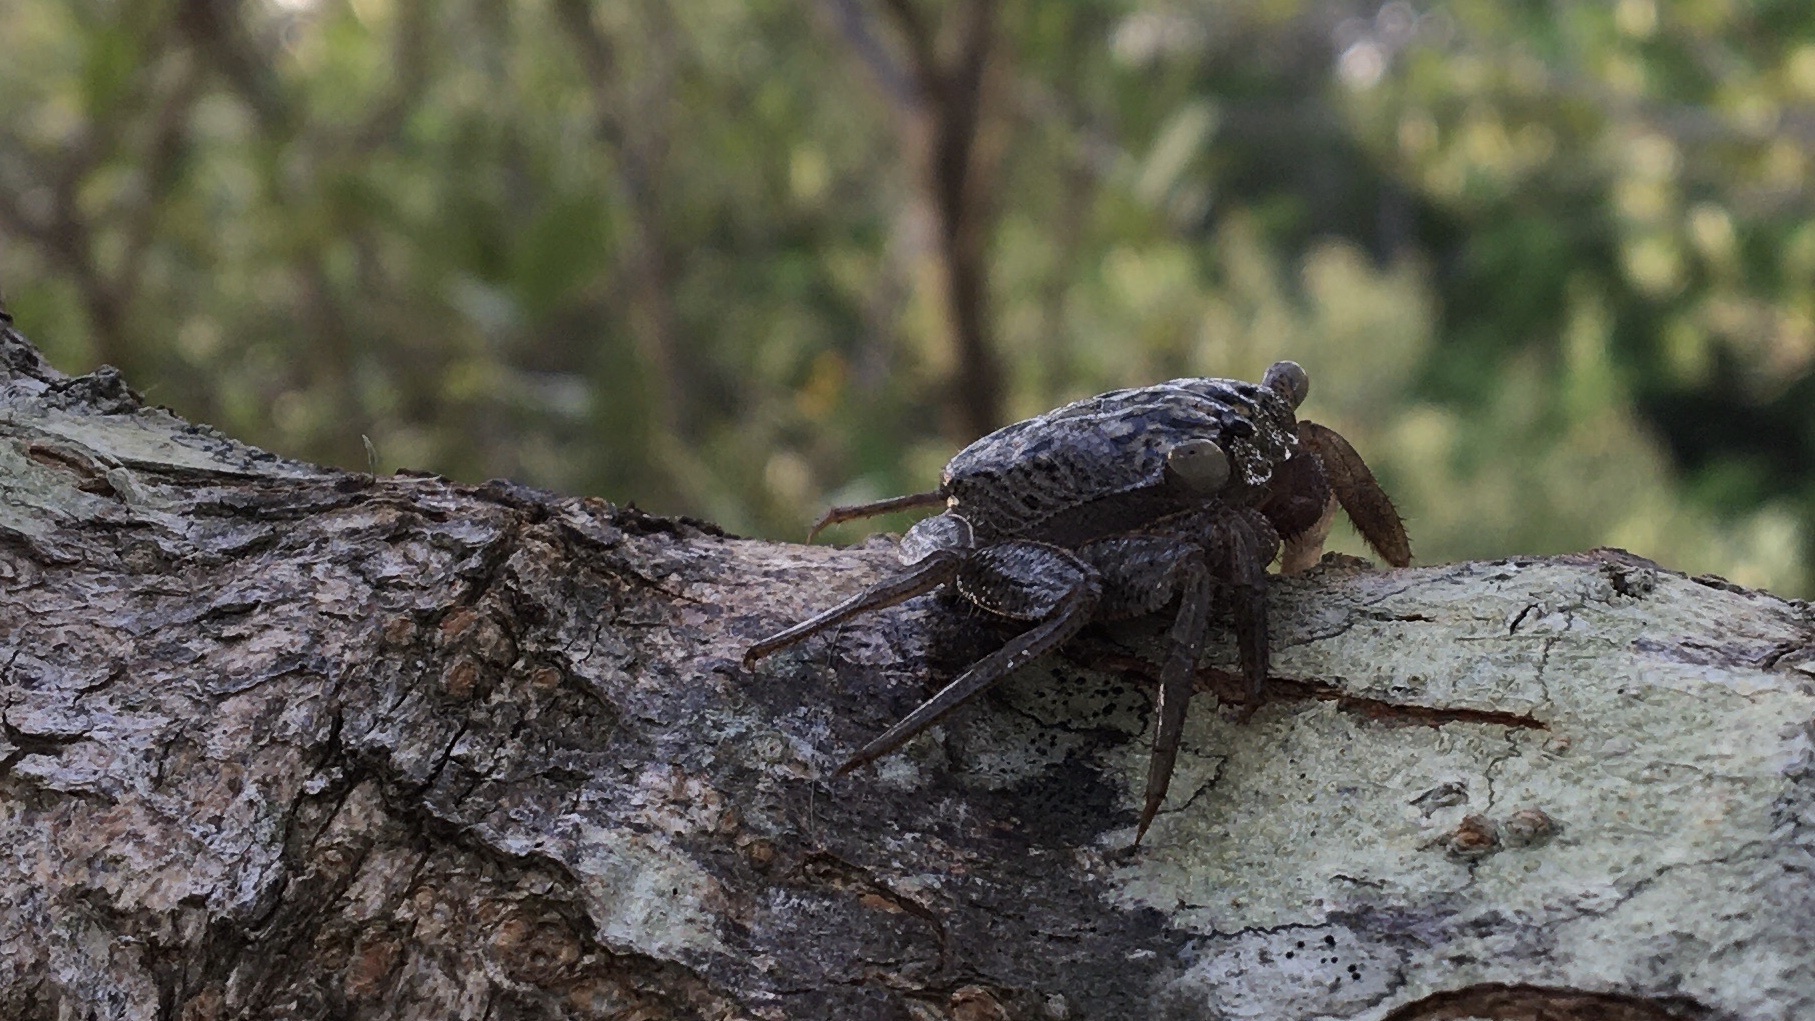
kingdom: Animalia
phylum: Arthropoda
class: Malacostraca
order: Decapoda
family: Sesarmidae
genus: Aratus
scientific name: Aratus pisonii
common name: Mangrove crab
